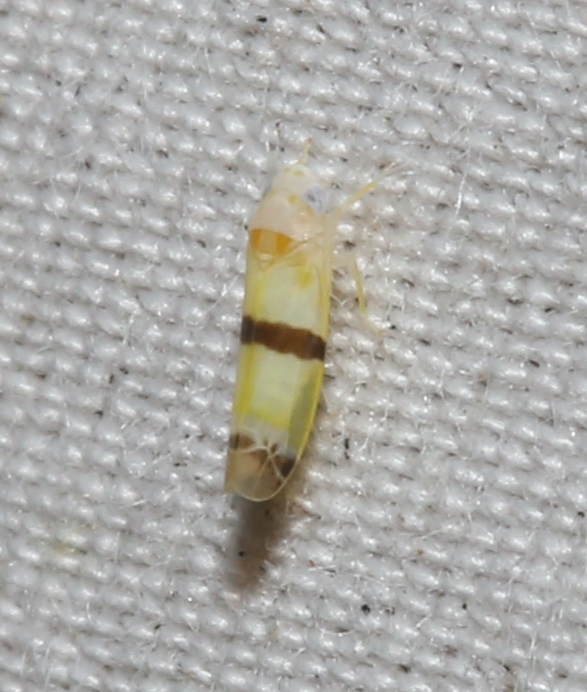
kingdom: Animalia
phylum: Arthropoda
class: Insecta
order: Hemiptera
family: Cicadellidae
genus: Empoa
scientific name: Empoa gillettei
